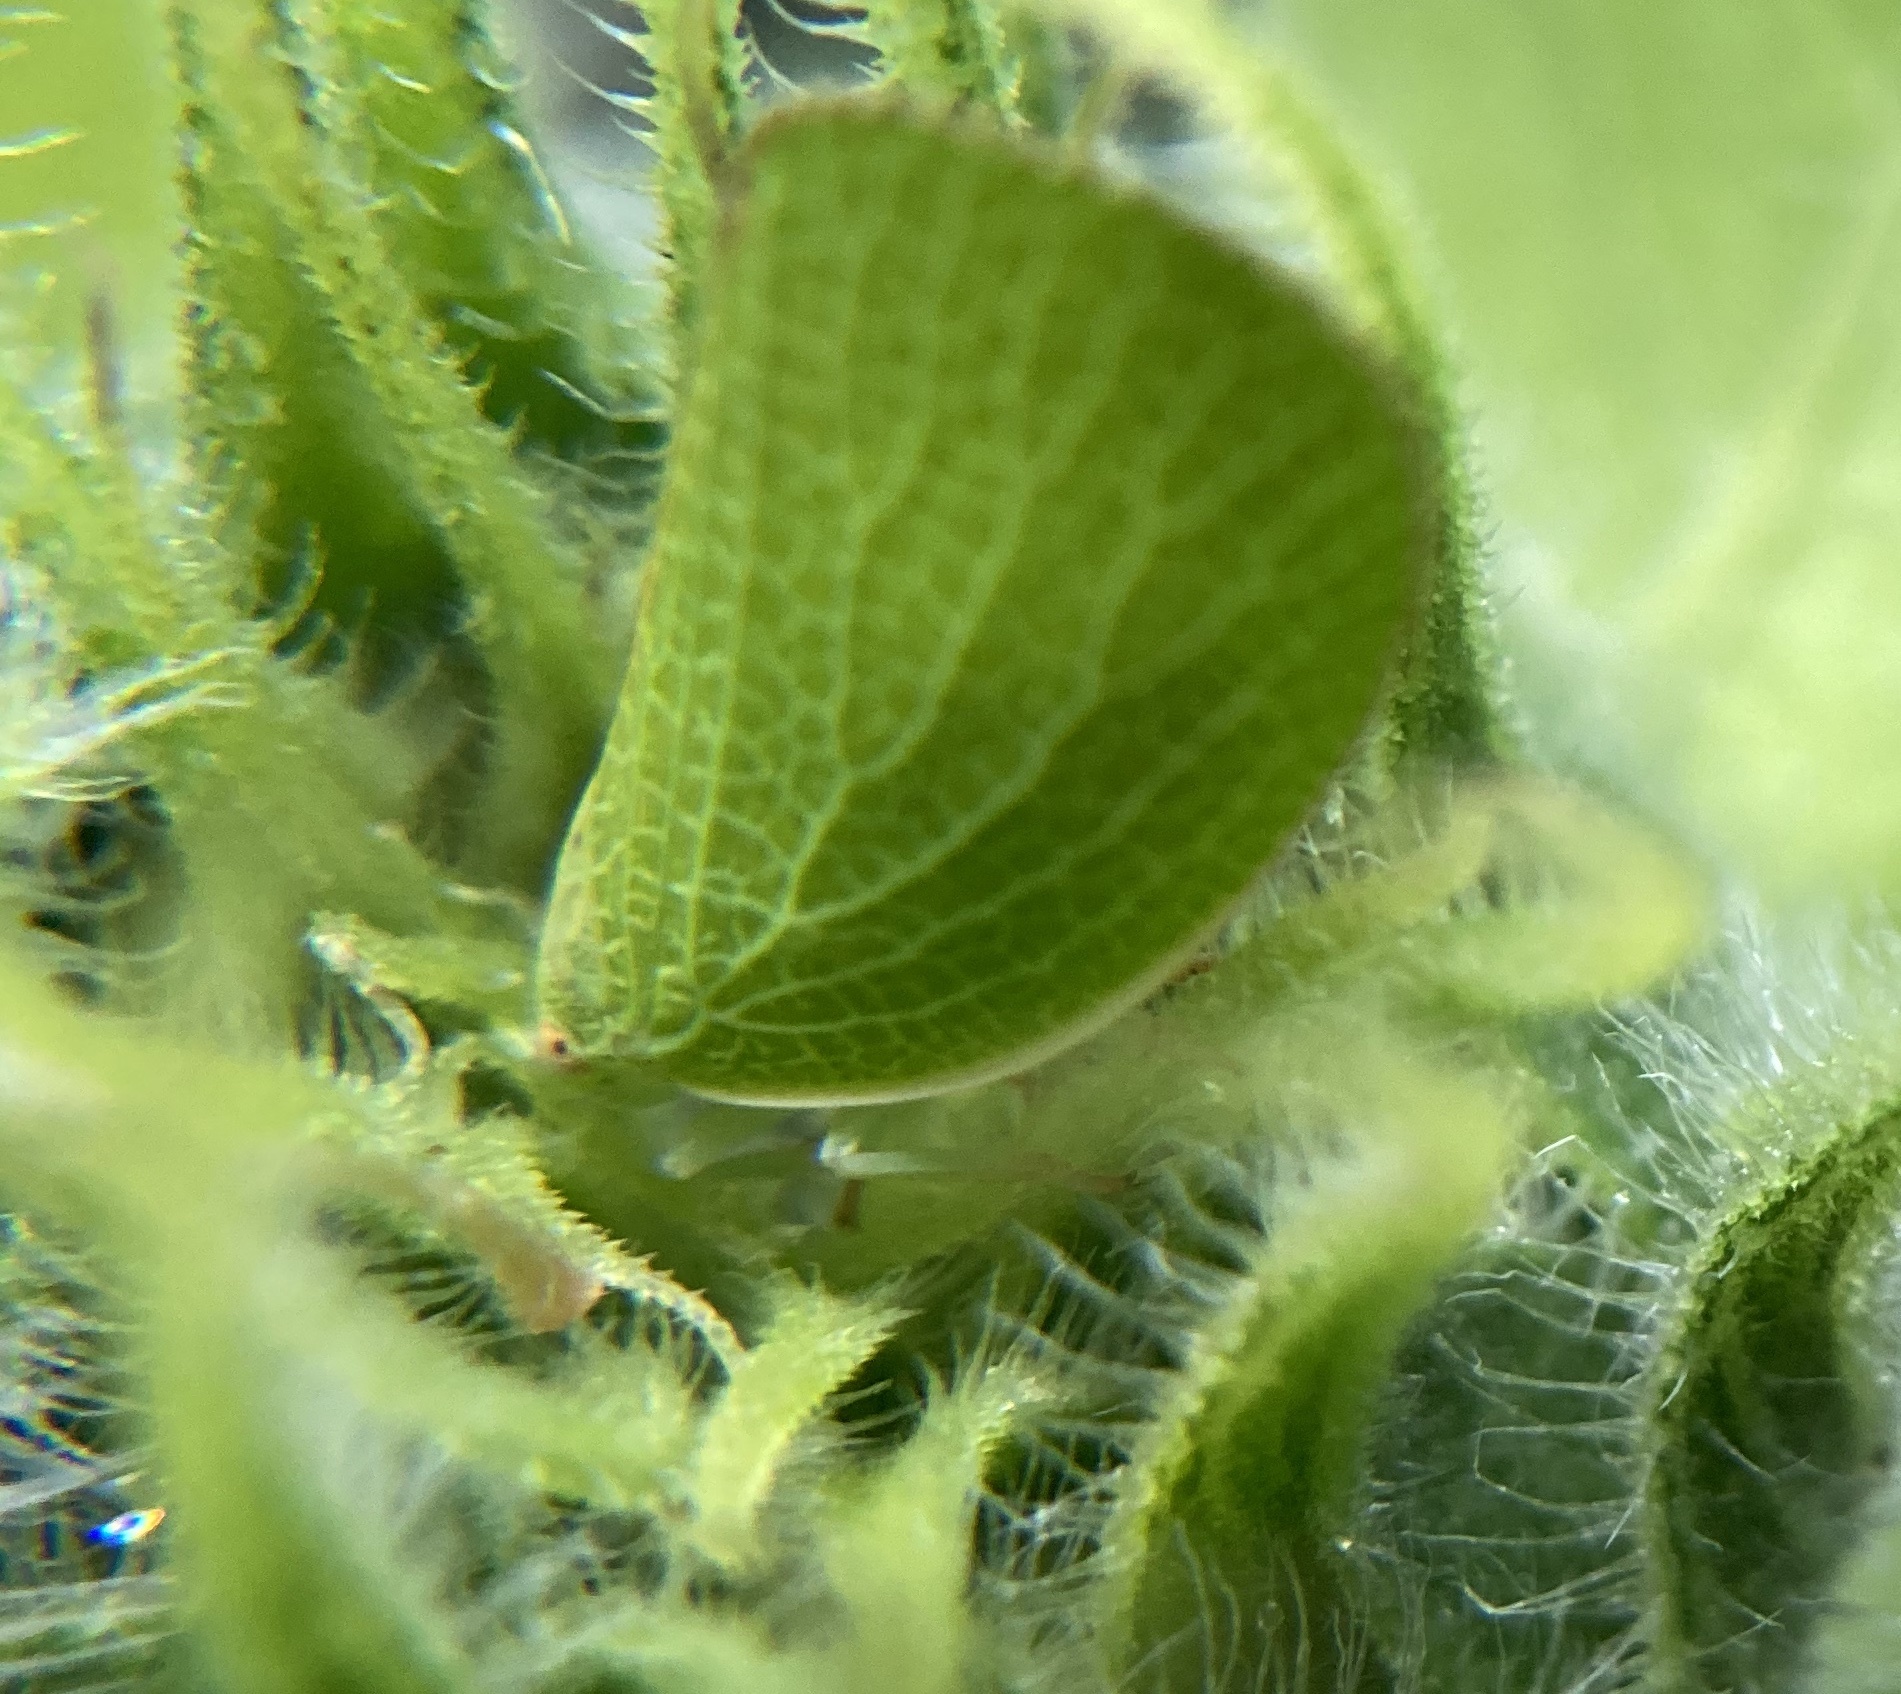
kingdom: Animalia
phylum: Arthropoda
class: Insecta
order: Hemiptera
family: Acanaloniidae
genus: Acanalonia
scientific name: Acanalonia conica
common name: Green cone-headed planthopper
